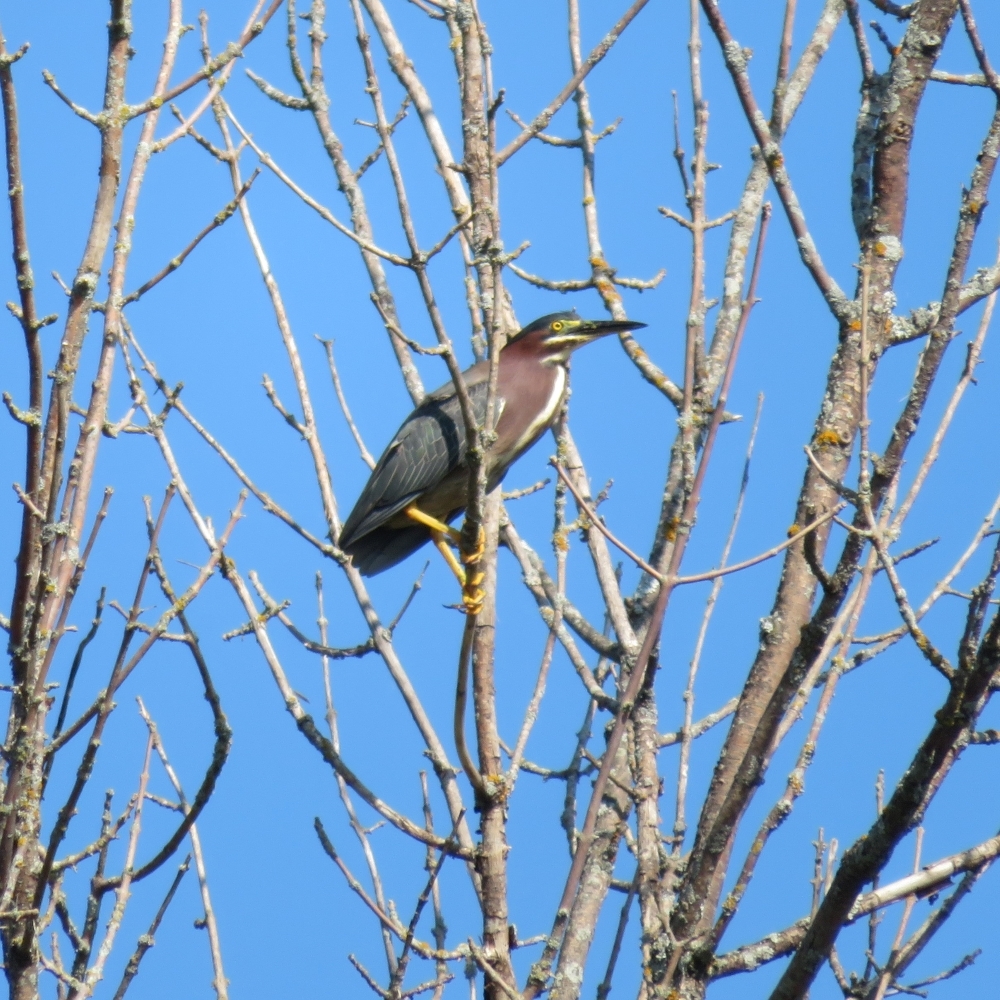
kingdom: Animalia
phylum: Chordata
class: Aves
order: Pelecaniformes
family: Ardeidae
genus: Butorides
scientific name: Butorides virescens
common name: Green heron
